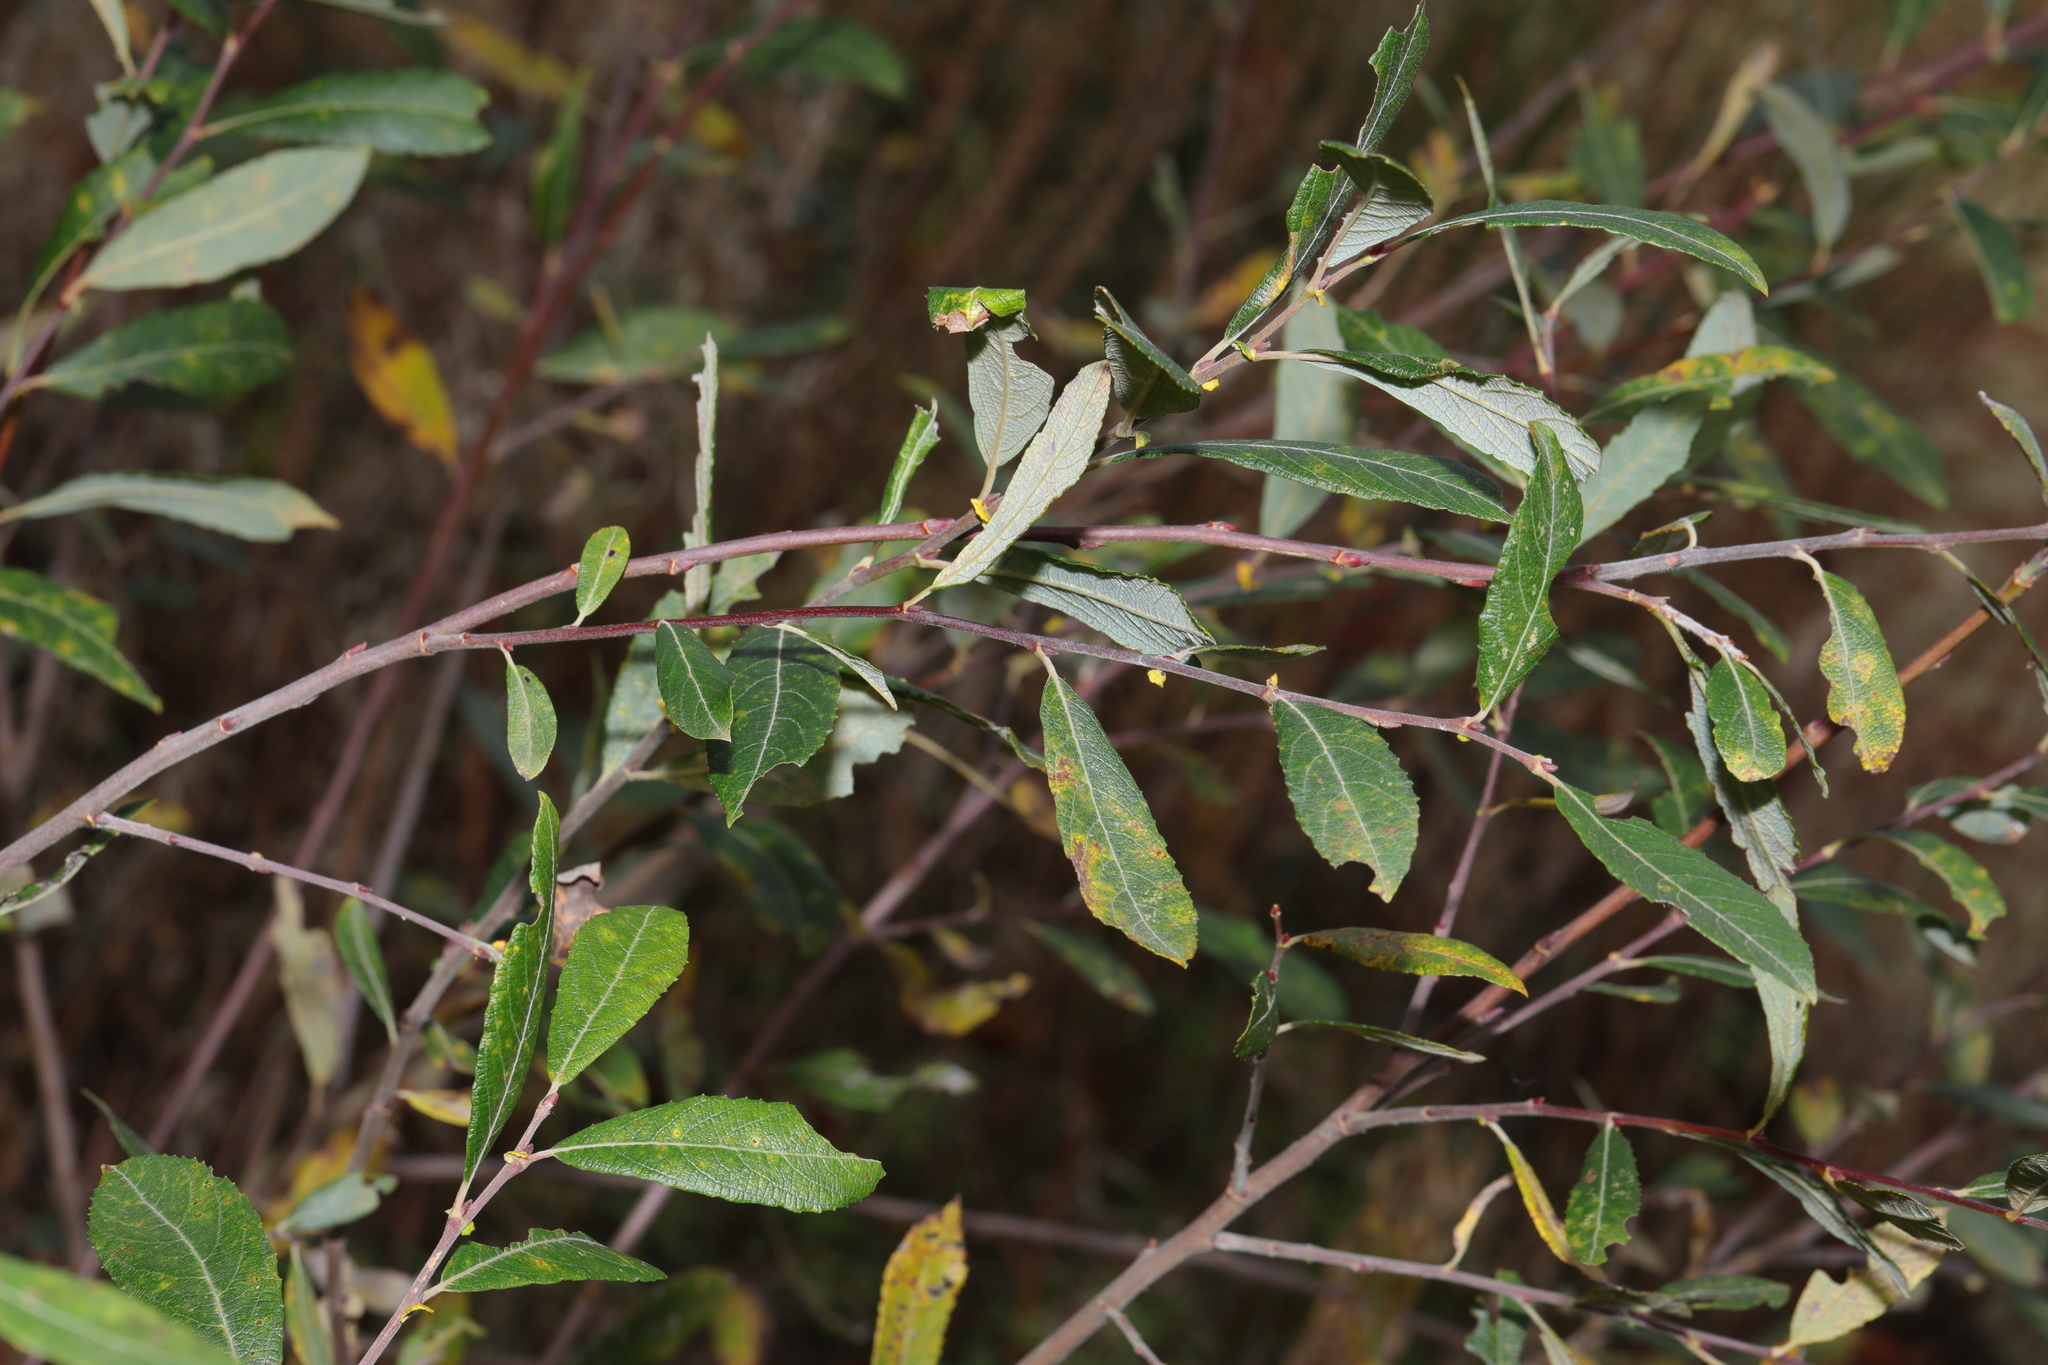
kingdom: Plantae
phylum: Tracheophyta
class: Magnoliopsida
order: Malpighiales
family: Salicaceae
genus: Salix
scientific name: Salix atrocinerea
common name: Rusty willow
